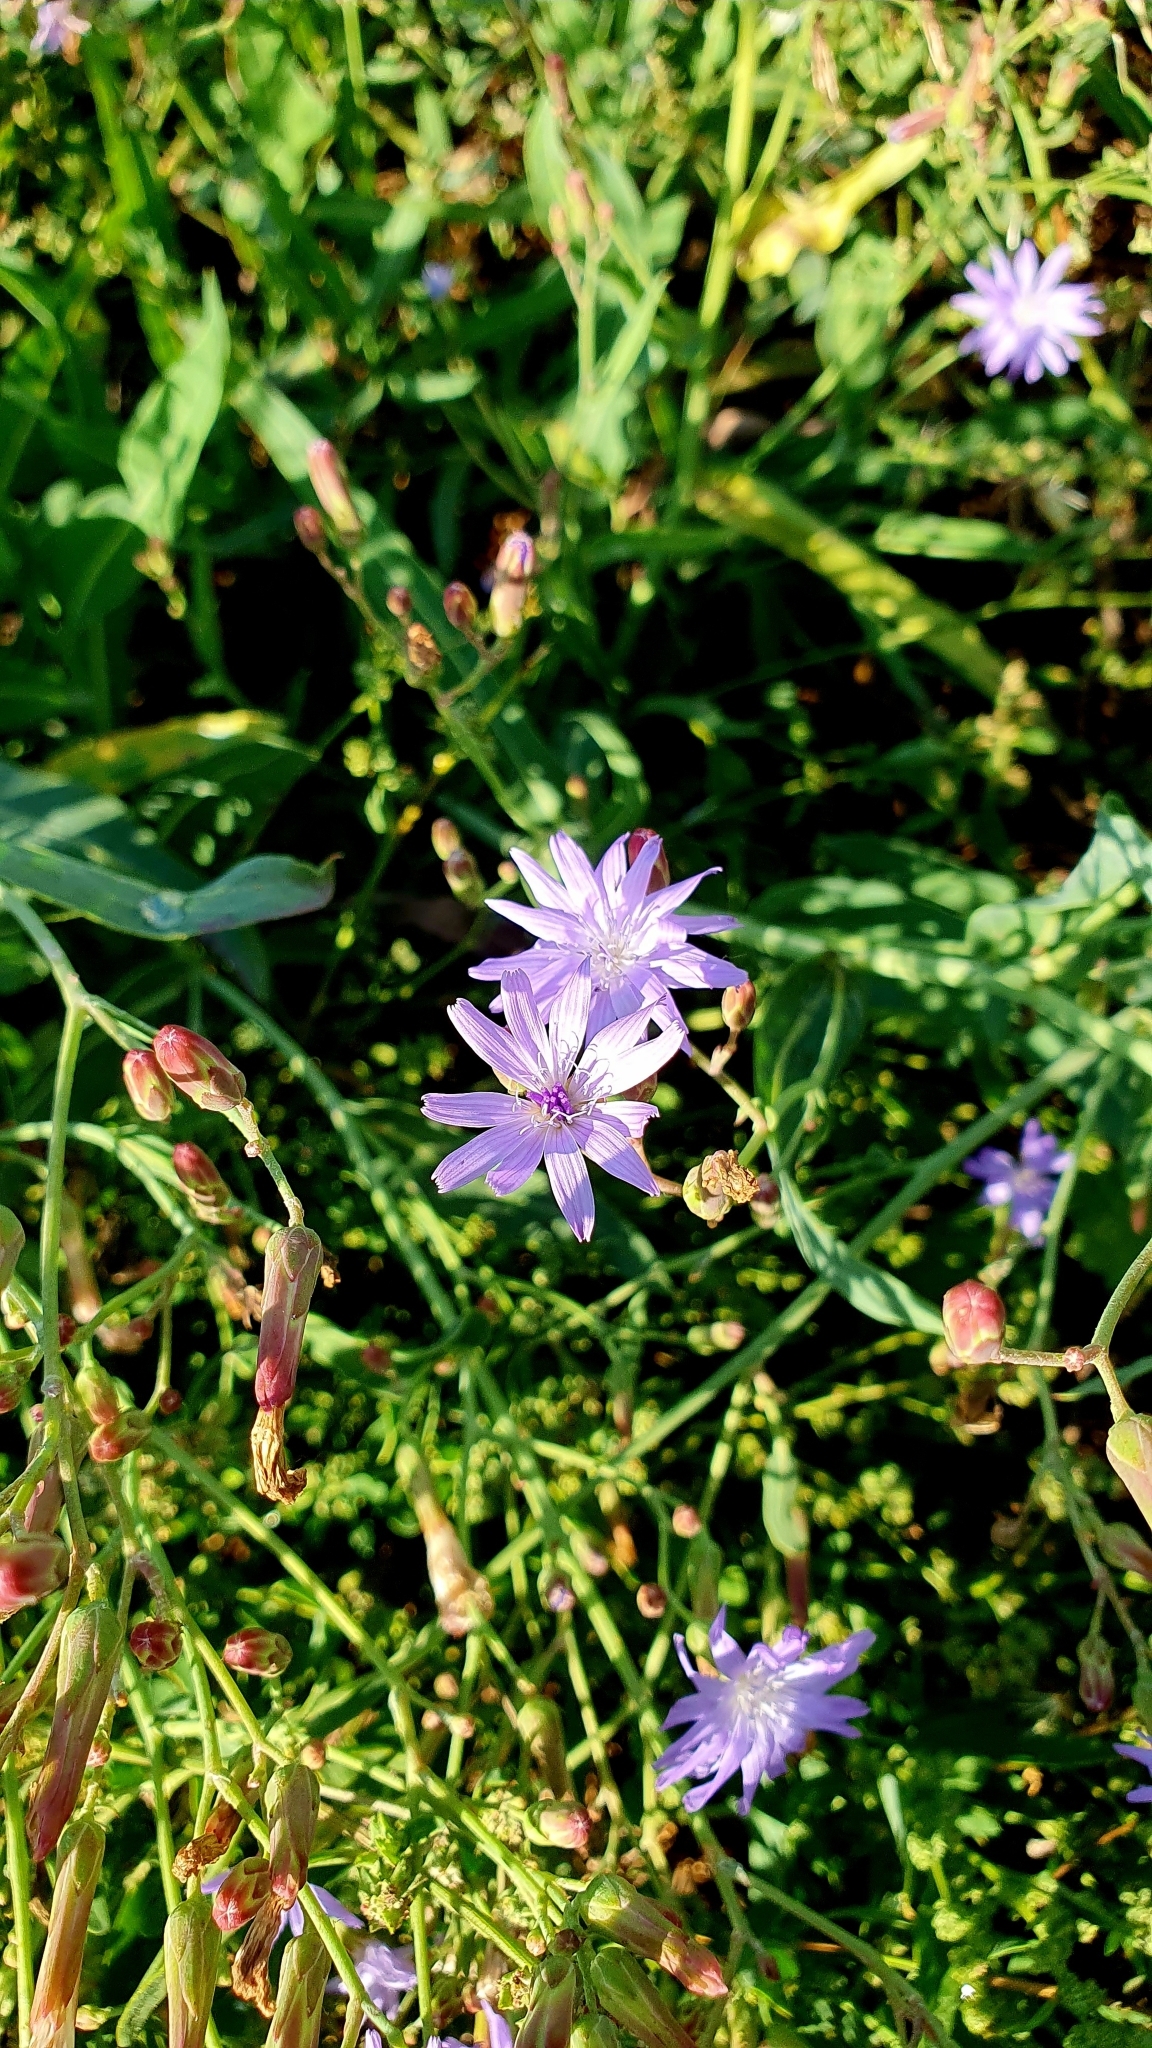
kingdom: Plantae
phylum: Tracheophyta
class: Magnoliopsida
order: Asterales
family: Asteraceae
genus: Lactuca
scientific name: Lactuca tatarica
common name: Blue lettuce
